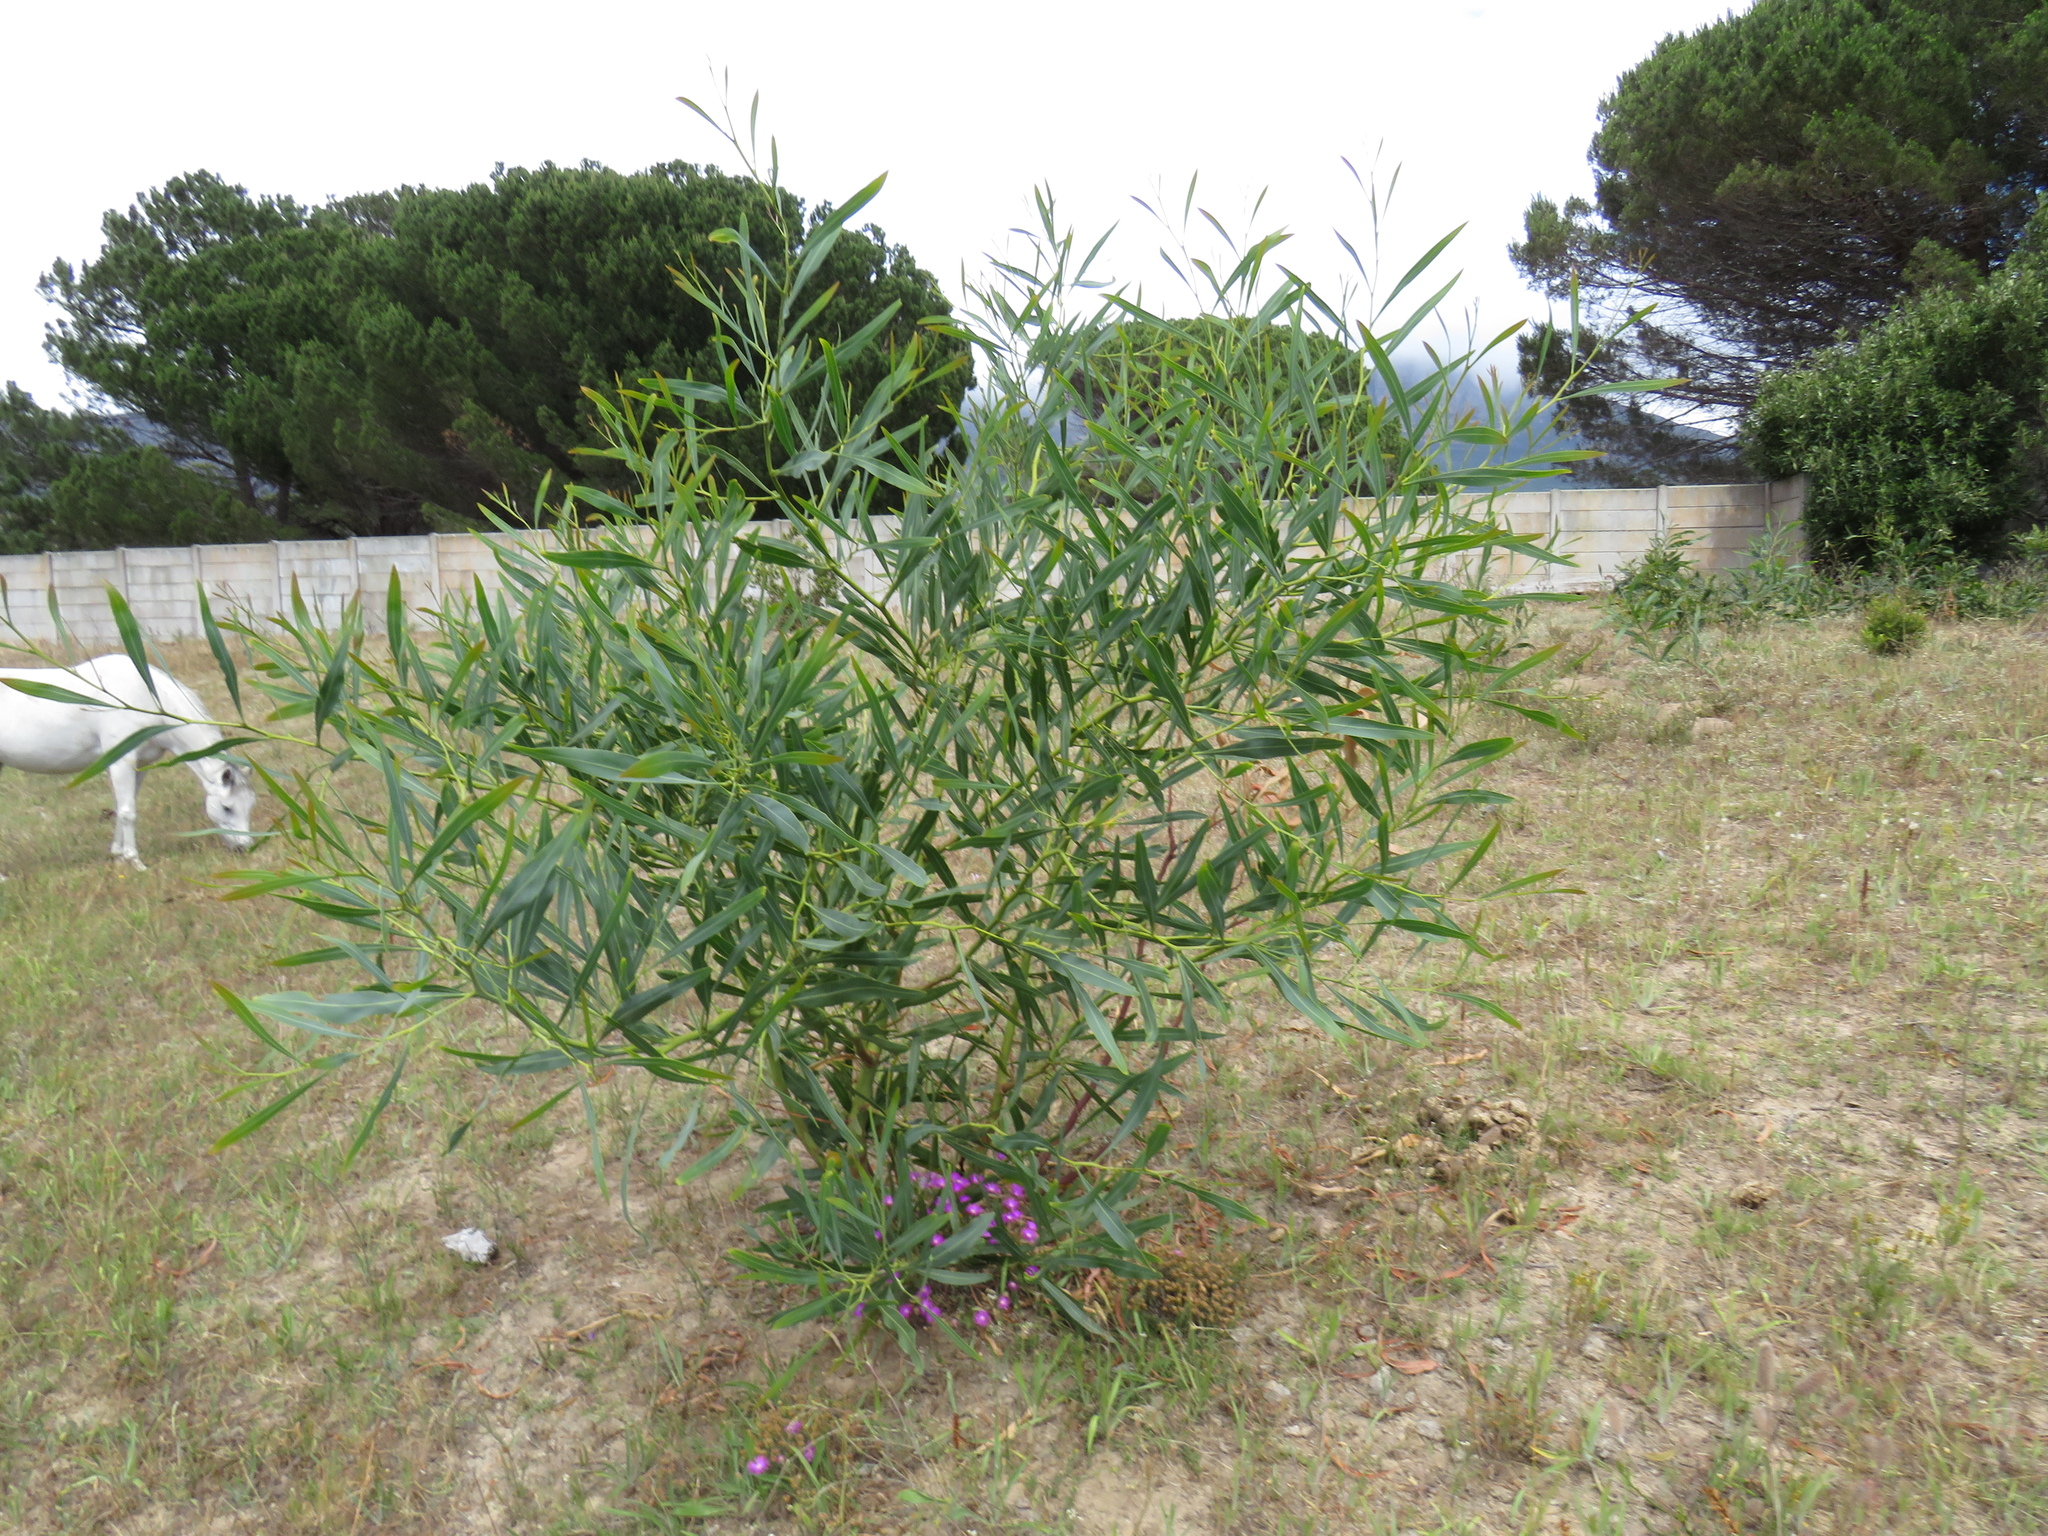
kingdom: Plantae
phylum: Tracheophyta
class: Magnoliopsida
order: Caryophyllales
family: Aizoaceae
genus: Lampranthus
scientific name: Lampranthus emarginatus
